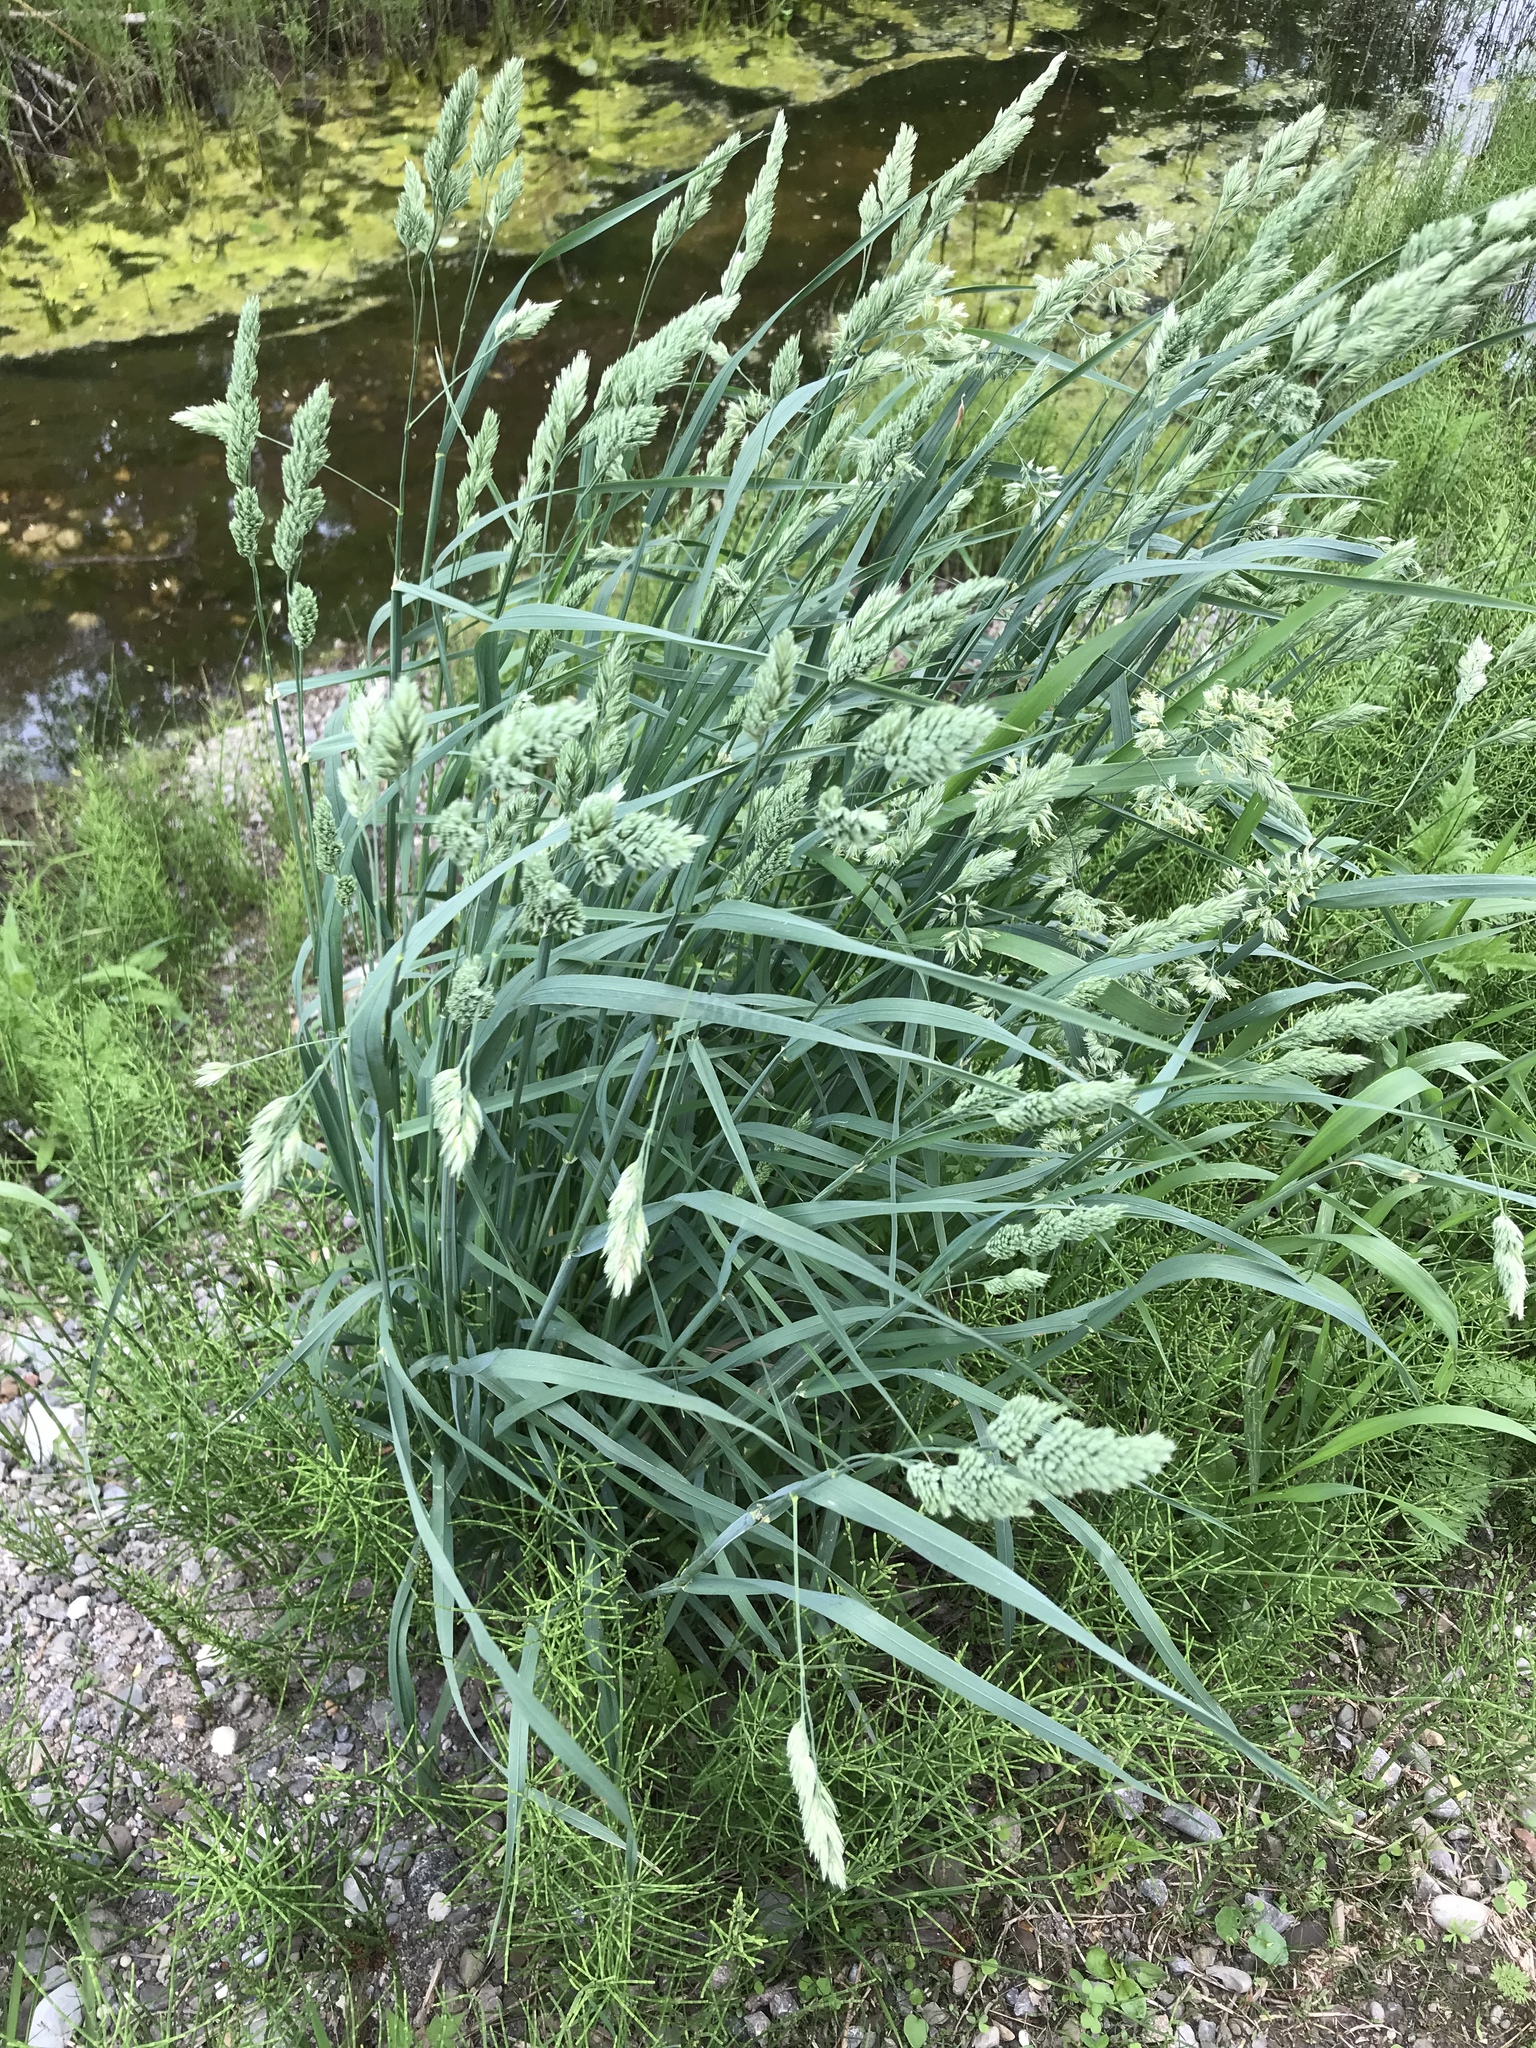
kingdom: Plantae
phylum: Tracheophyta
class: Liliopsida
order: Poales
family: Poaceae
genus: Dactylis
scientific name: Dactylis glomerata
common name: Orchardgrass
